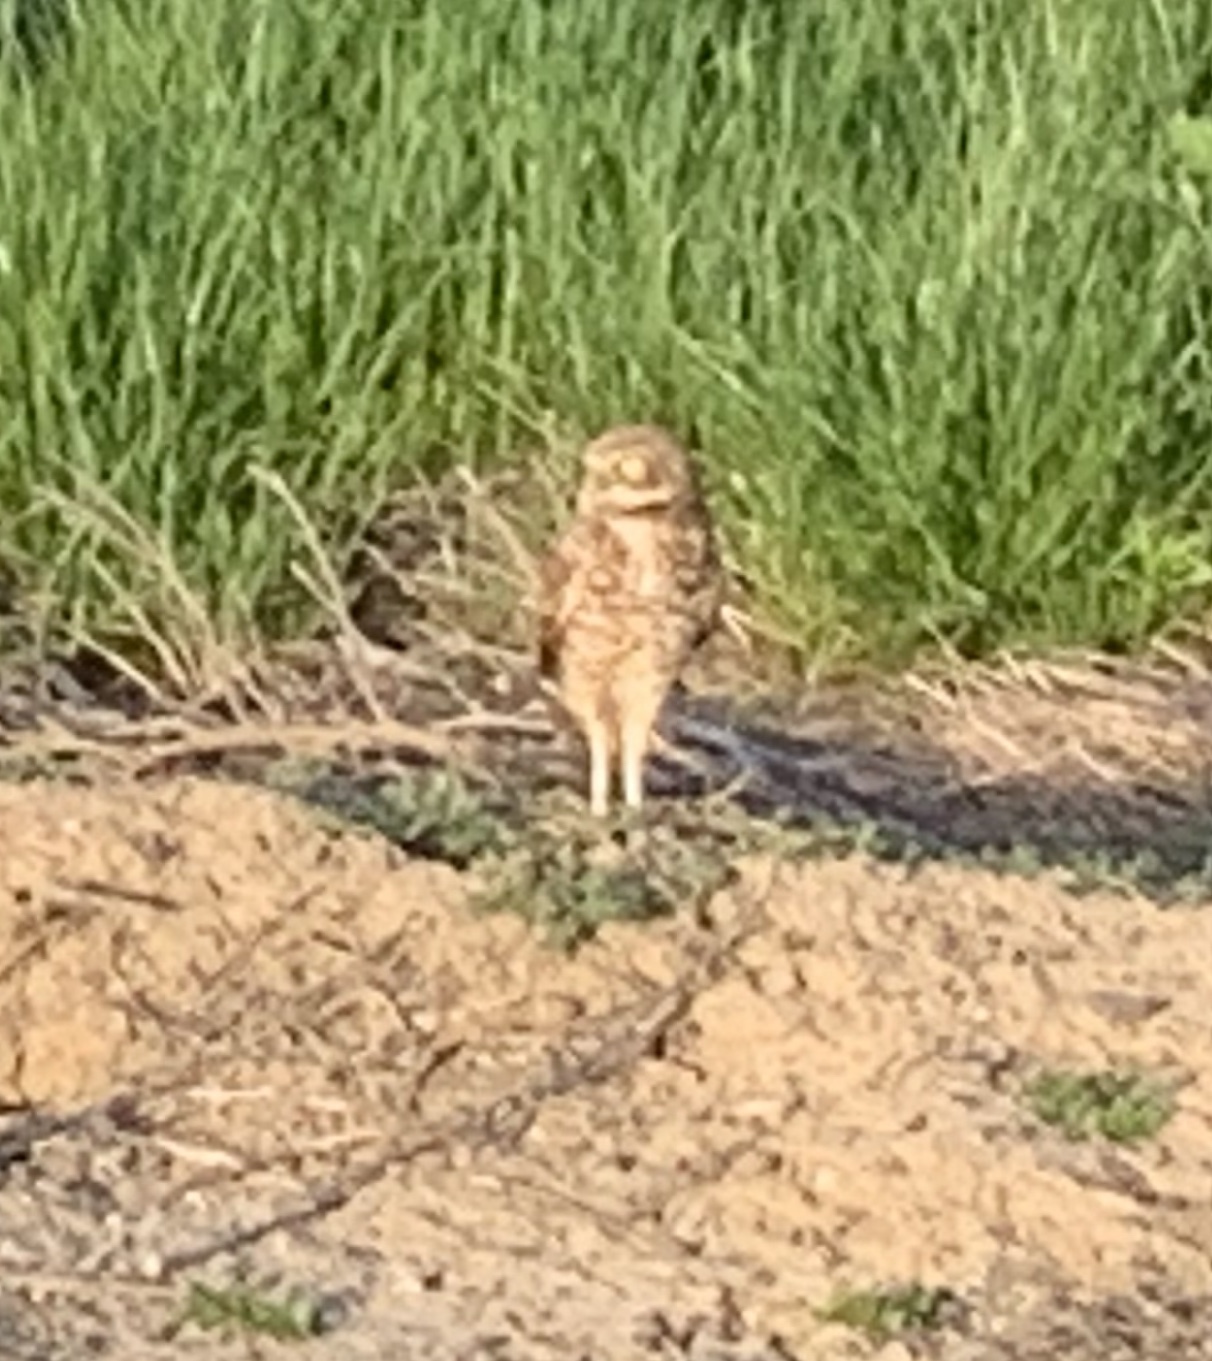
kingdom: Animalia
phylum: Chordata
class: Aves
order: Strigiformes
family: Strigidae
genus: Athene
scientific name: Athene cunicularia
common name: Burrowing owl
